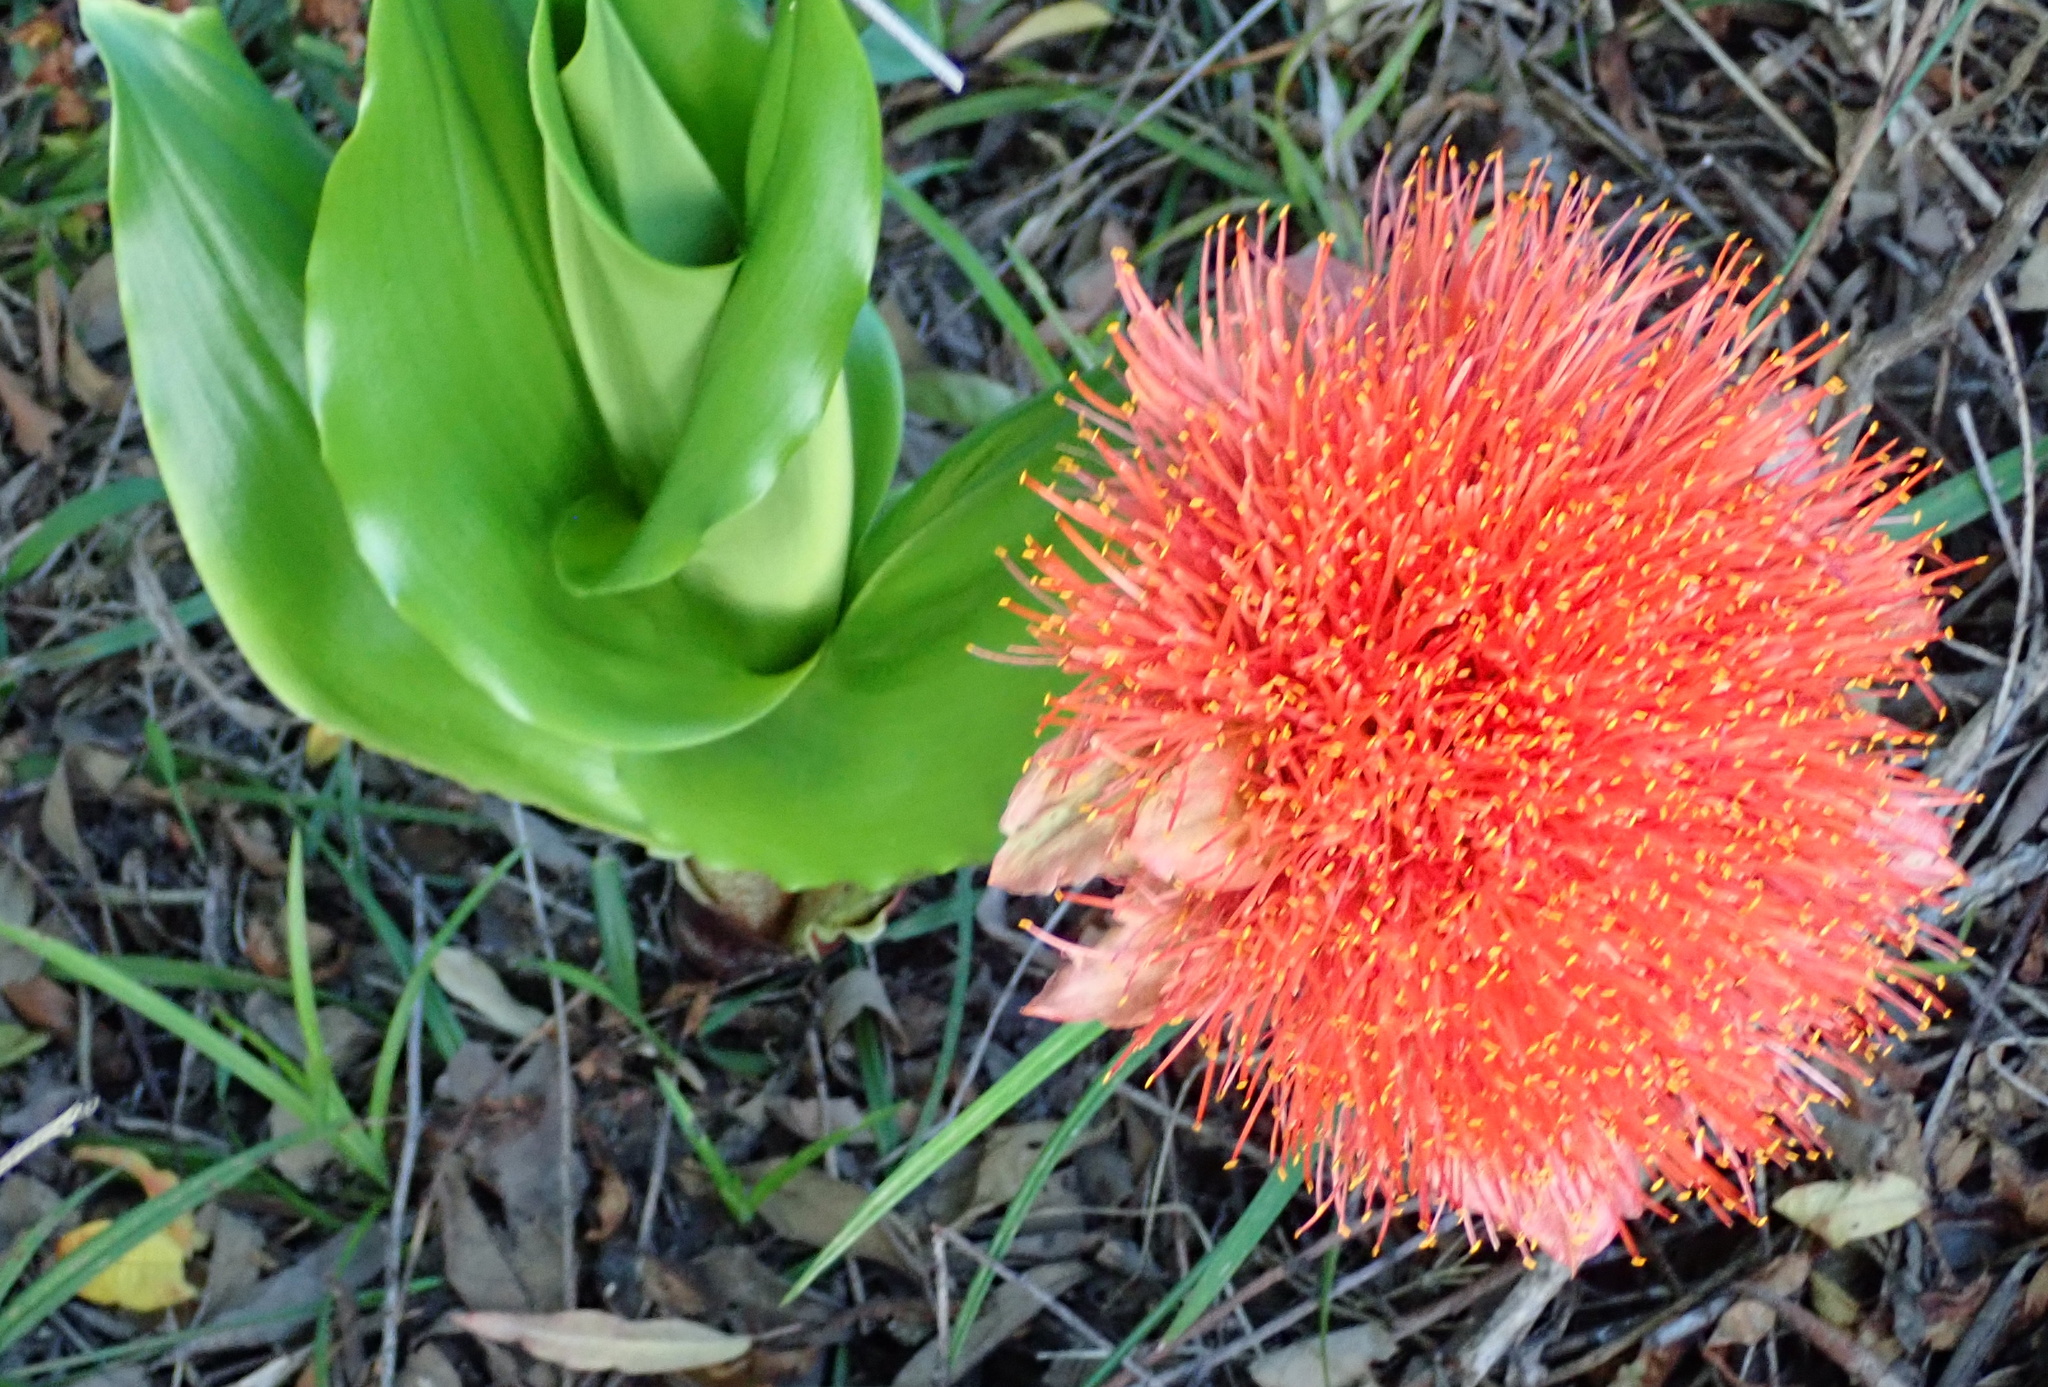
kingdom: Plantae
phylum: Tracheophyta
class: Liliopsida
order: Asparagales
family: Amaryllidaceae
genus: Scadoxus
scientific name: Scadoxus puniceus
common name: Royal-paintbrush
